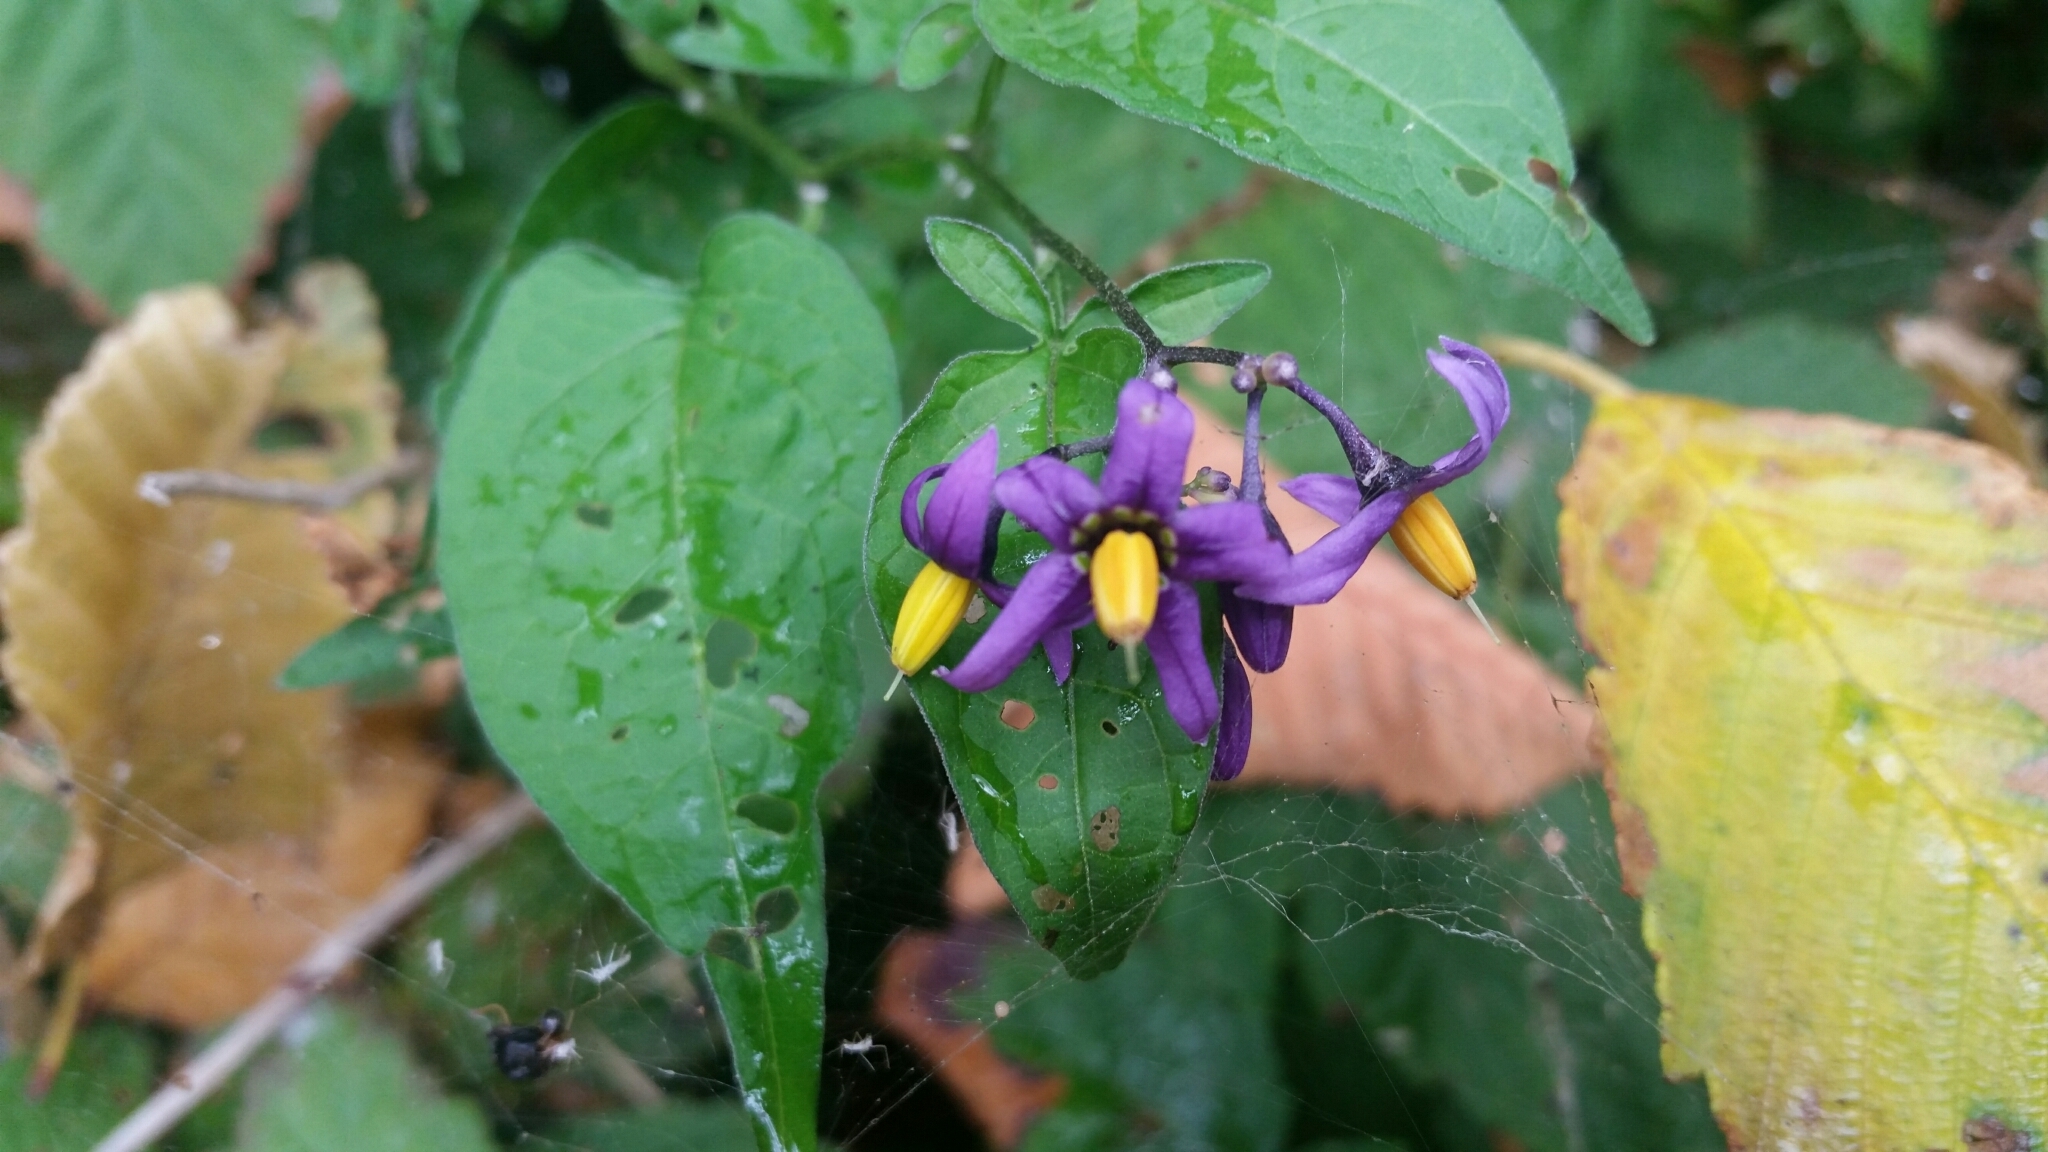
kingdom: Plantae
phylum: Tracheophyta
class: Magnoliopsida
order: Solanales
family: Solanaceae
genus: Solanum
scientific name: Solanum dulcamara
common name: Climbing nightshade
